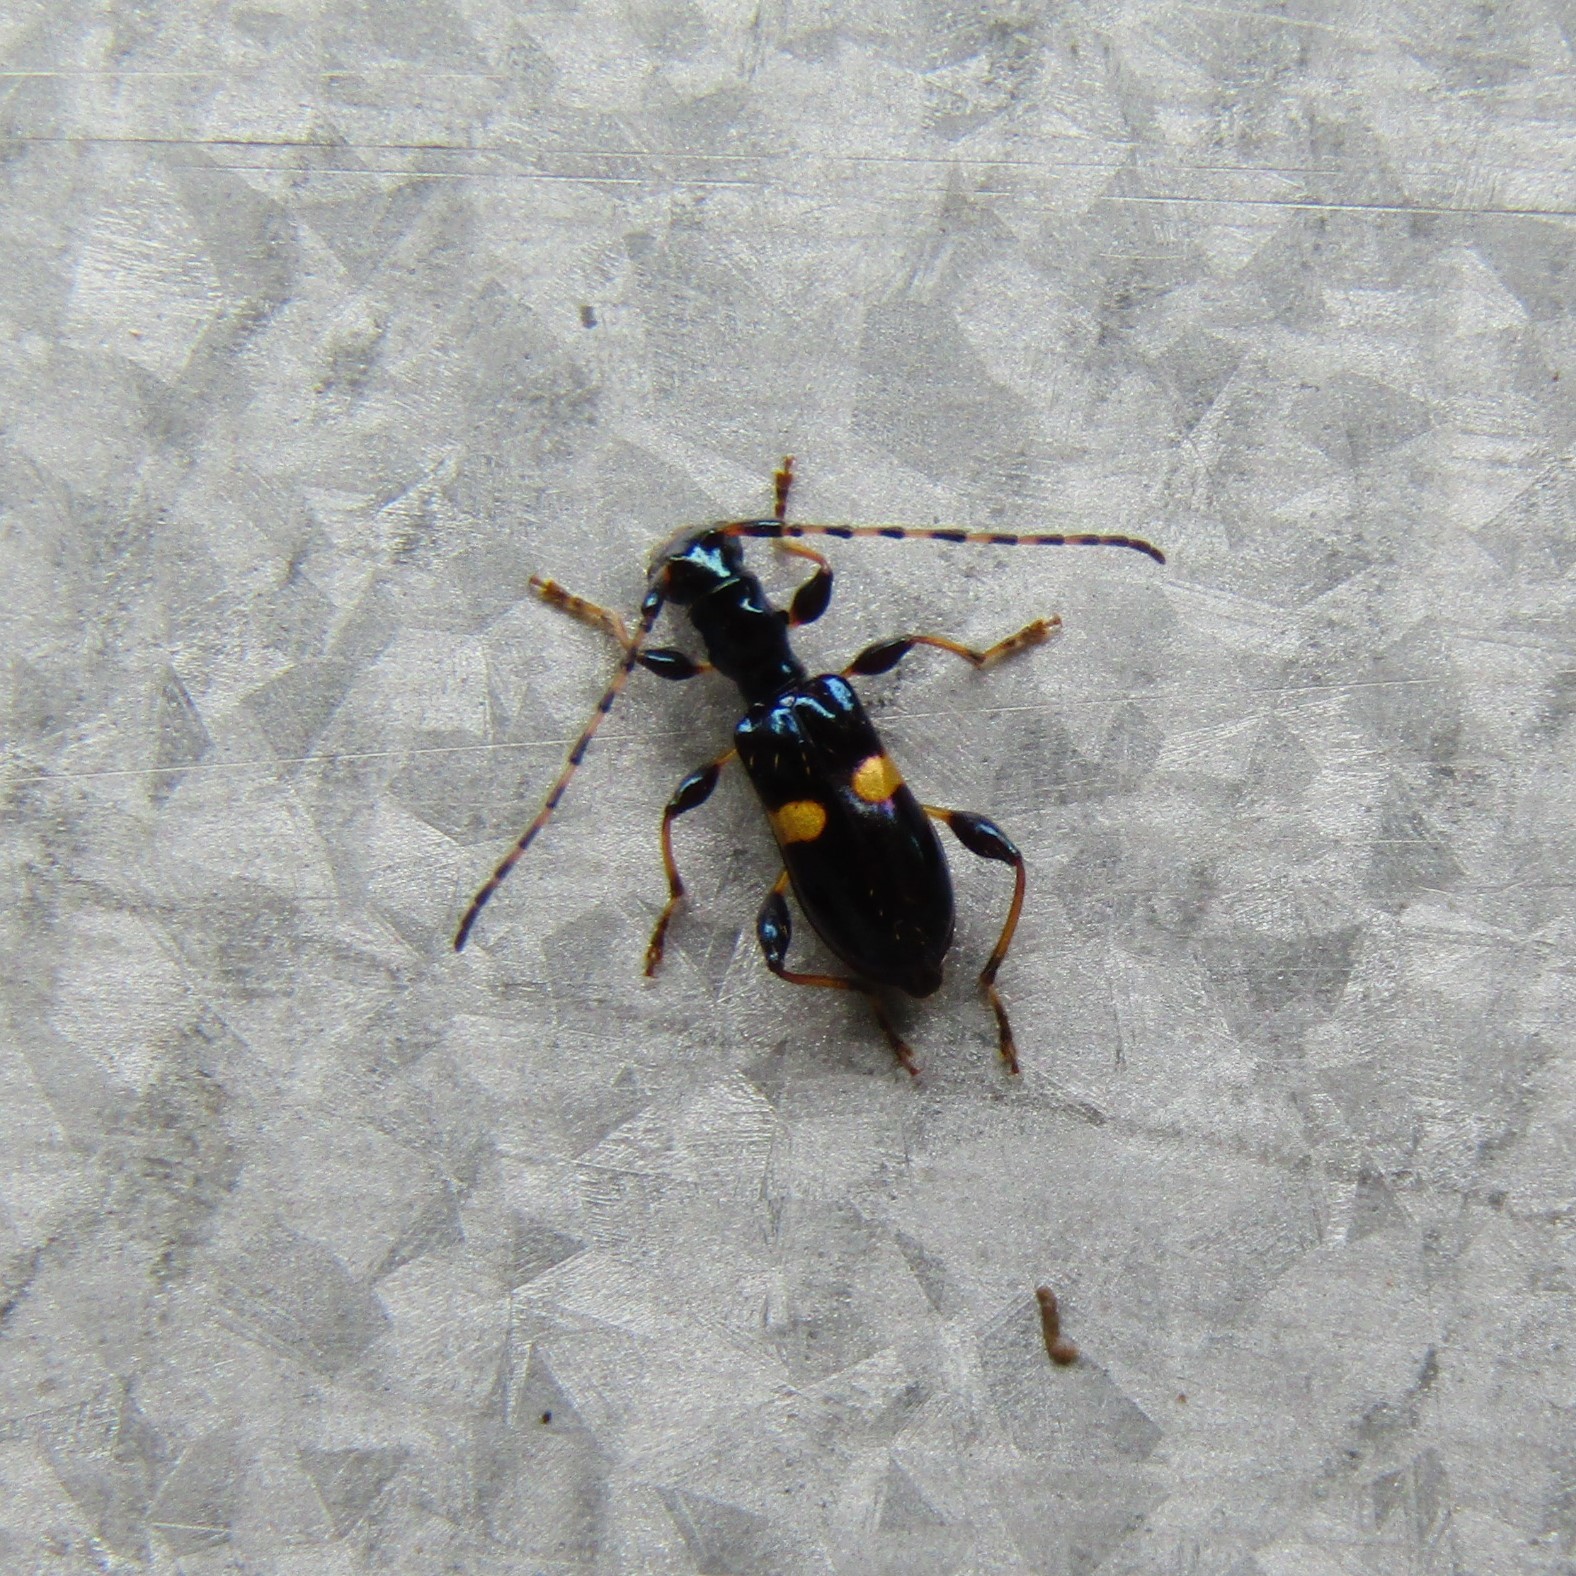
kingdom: Animalia
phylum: Arthropoda
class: Insecta
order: Coleoptera
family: Cerambycidae
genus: Zorion
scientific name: Zorion guttigerum
